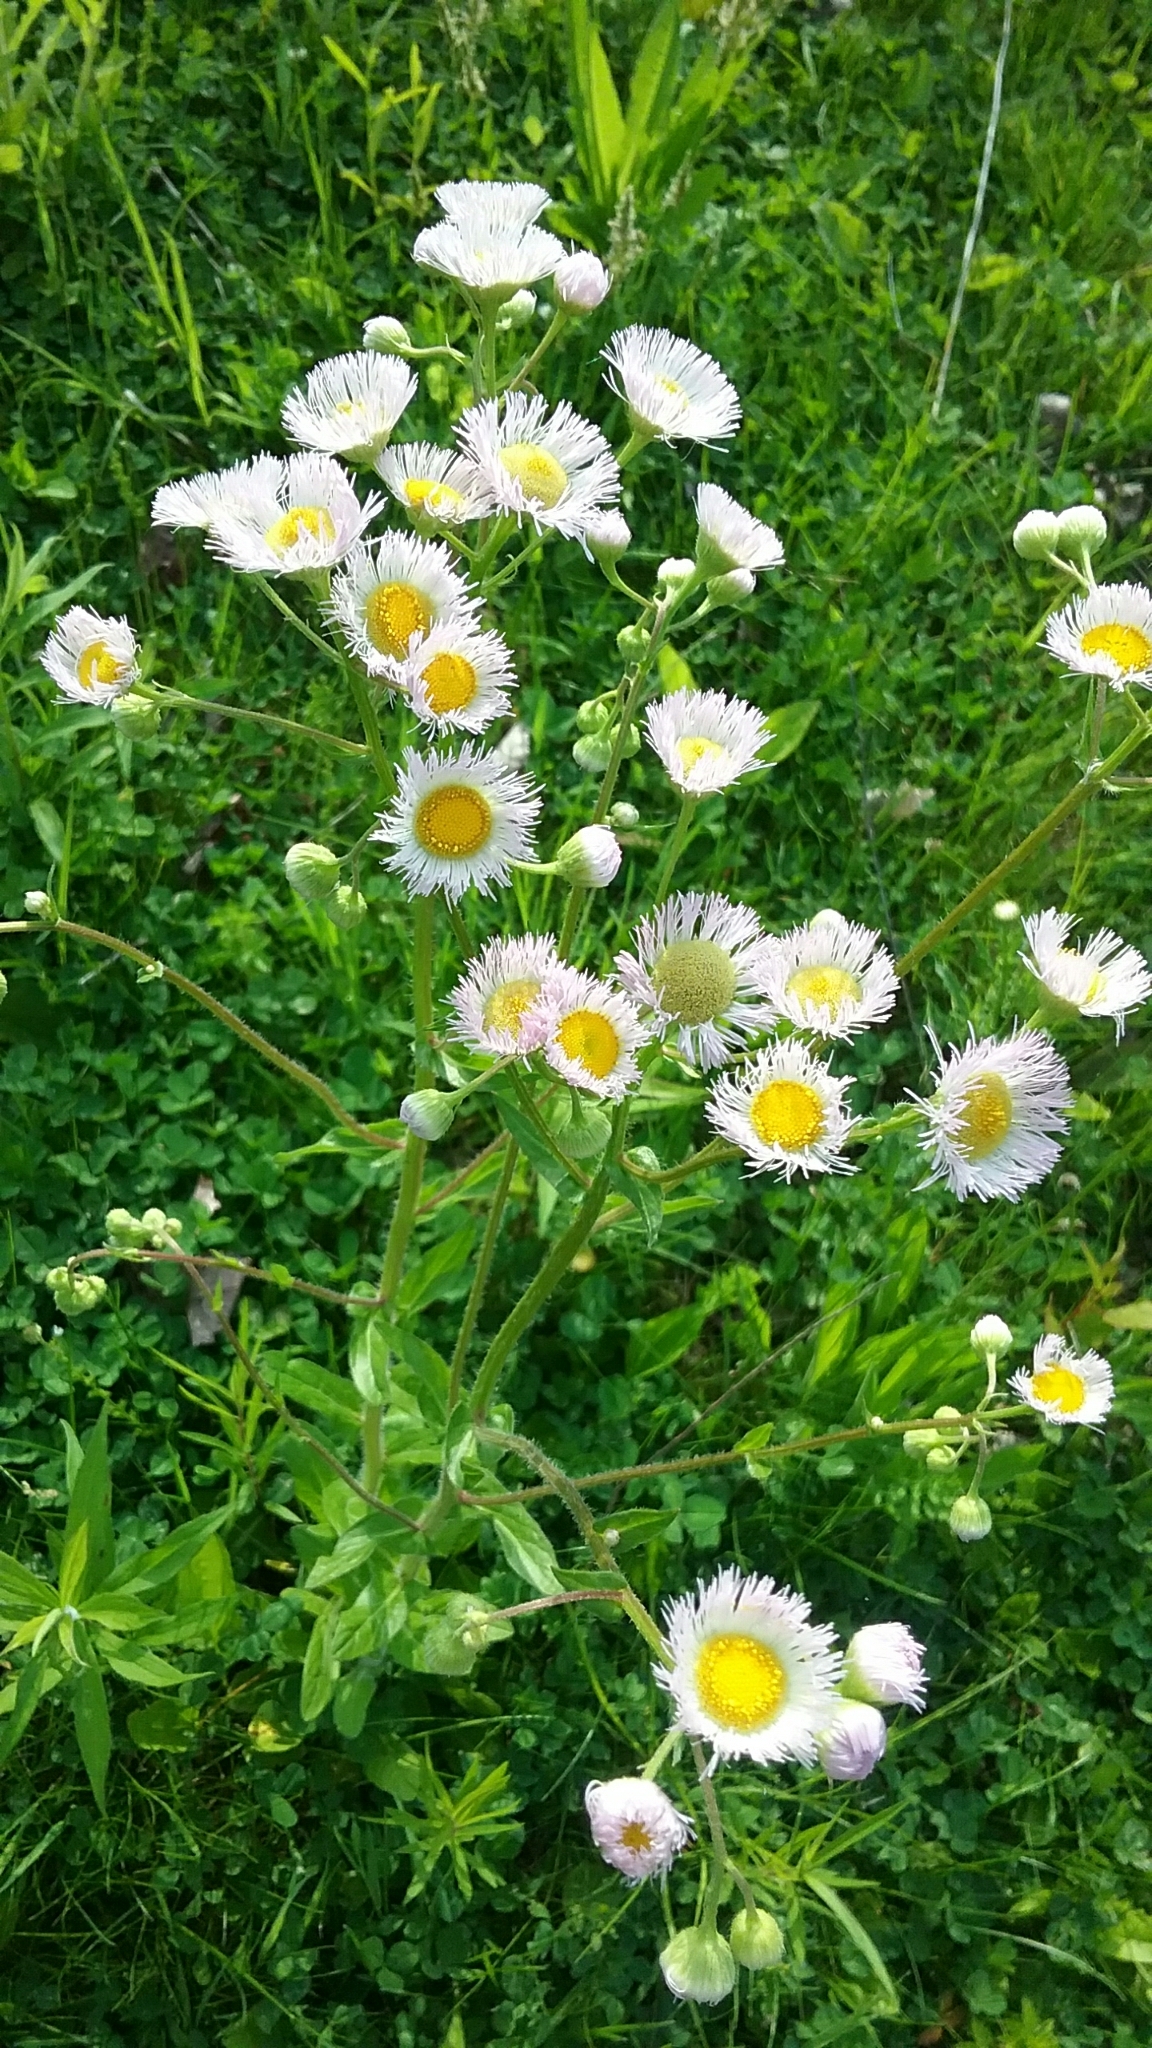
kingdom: Plantae
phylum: Tracheophyta
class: Magnoliopsida
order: Asterales
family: Asteraceae
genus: Erigeron
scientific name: Erigeron philadelphicus
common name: Robin's-plantain
